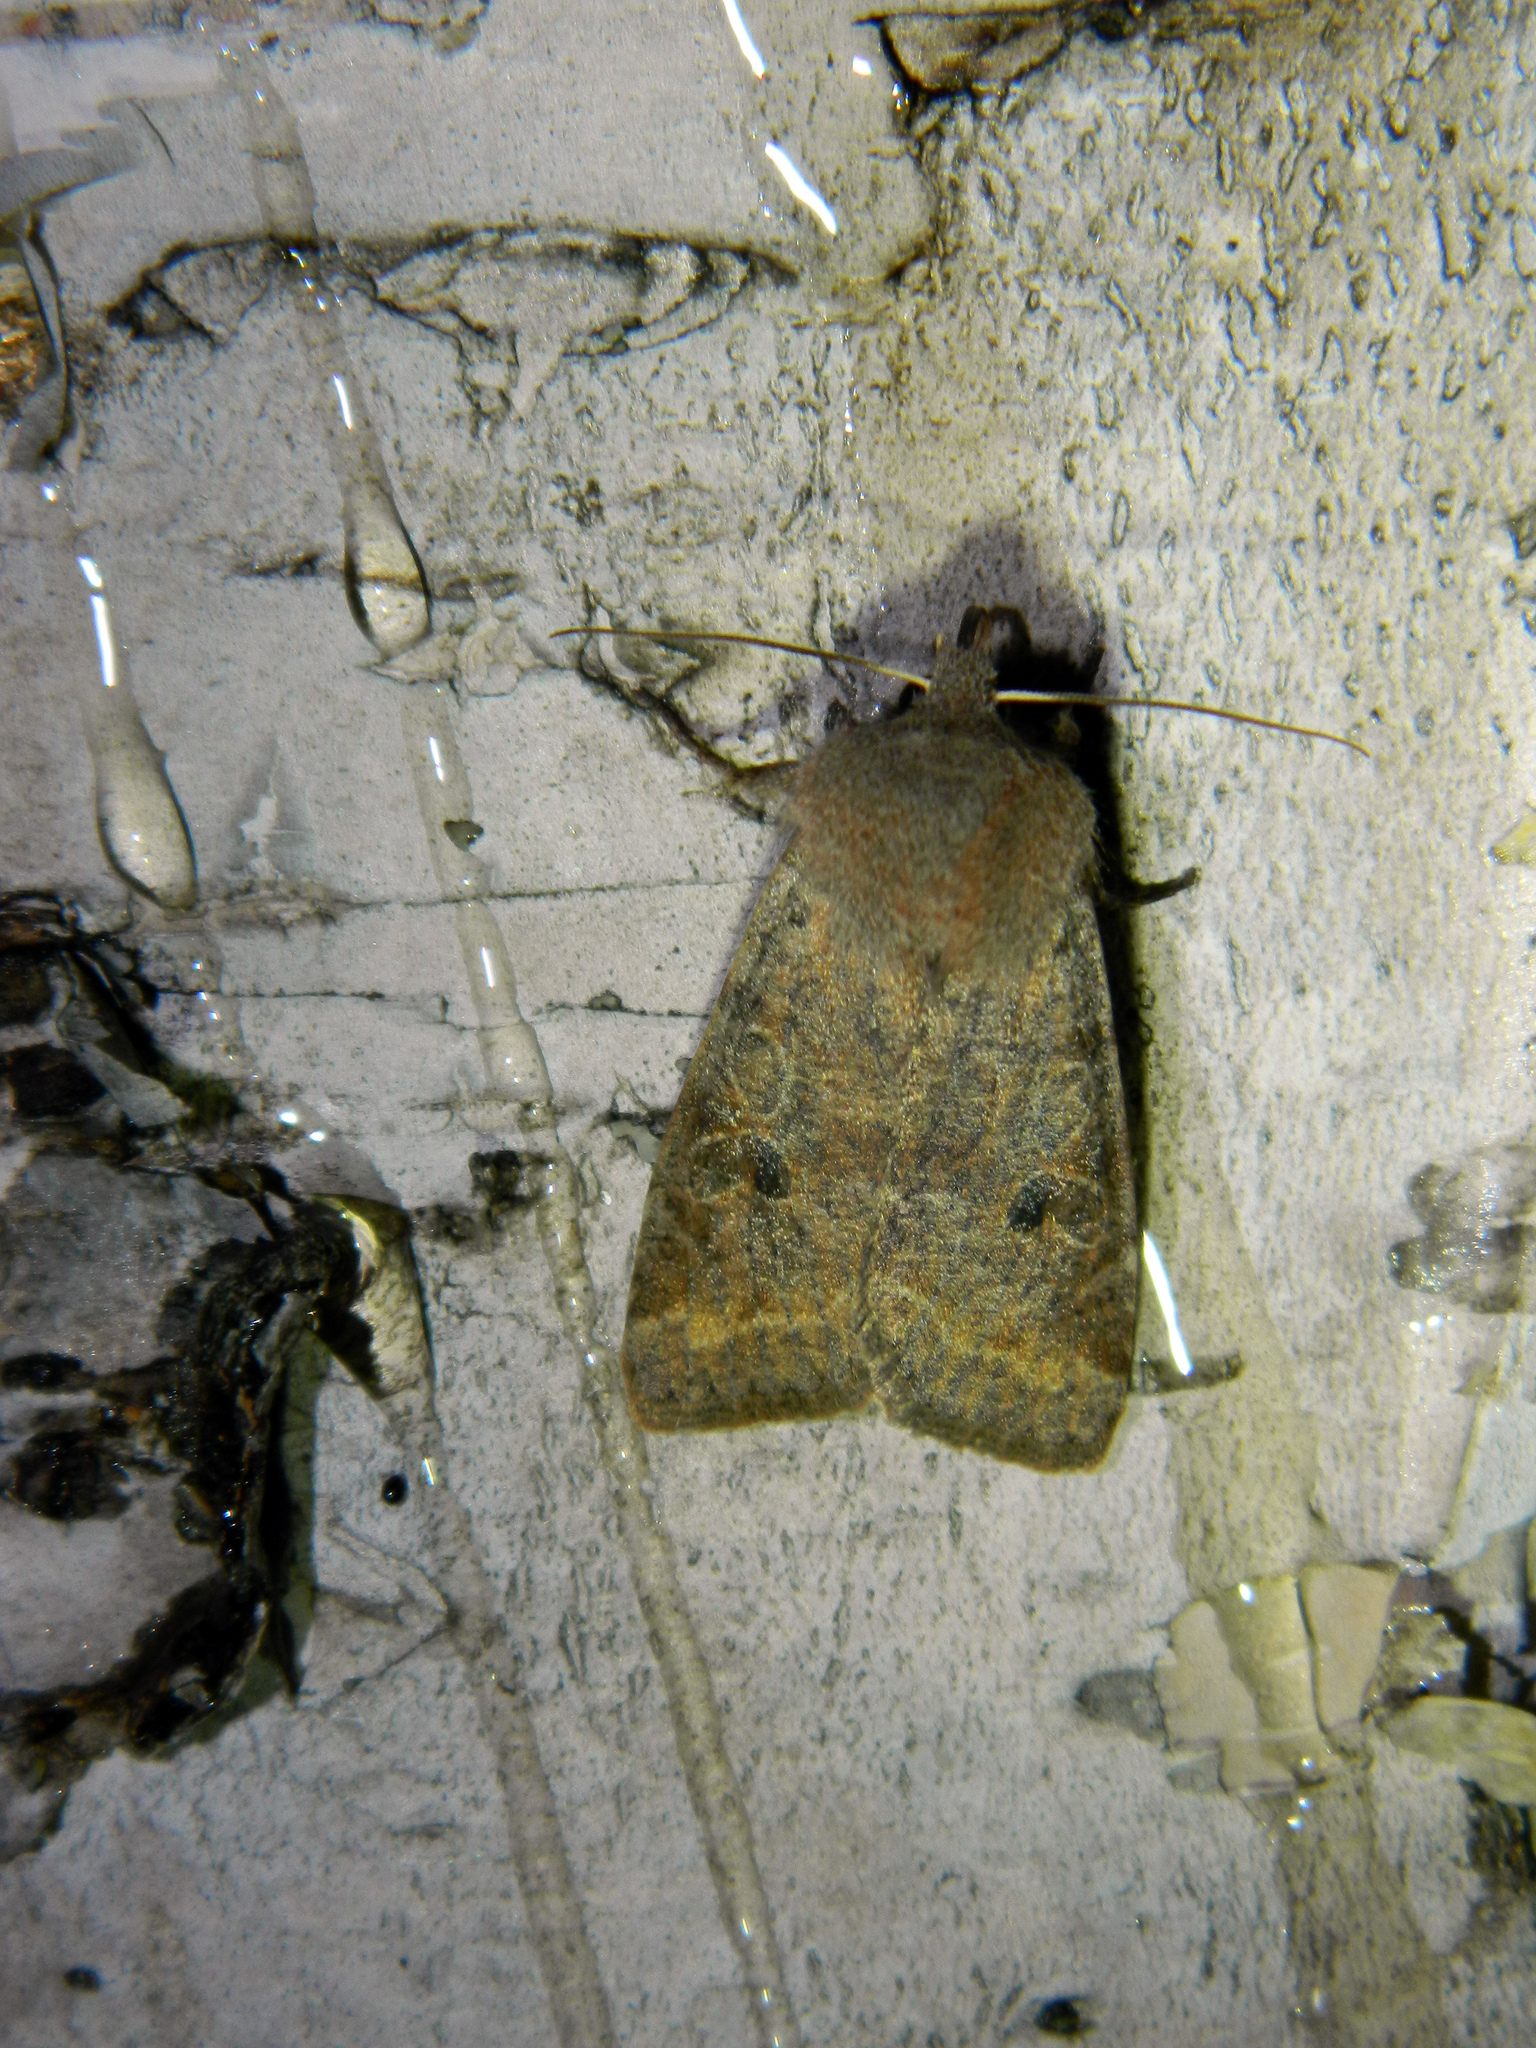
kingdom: Animalia
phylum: Arthropoda
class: Insecta
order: Lepidoptera
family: Noctuidae
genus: Orthosia
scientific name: Orthosia hibisci
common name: Green fruitworm
